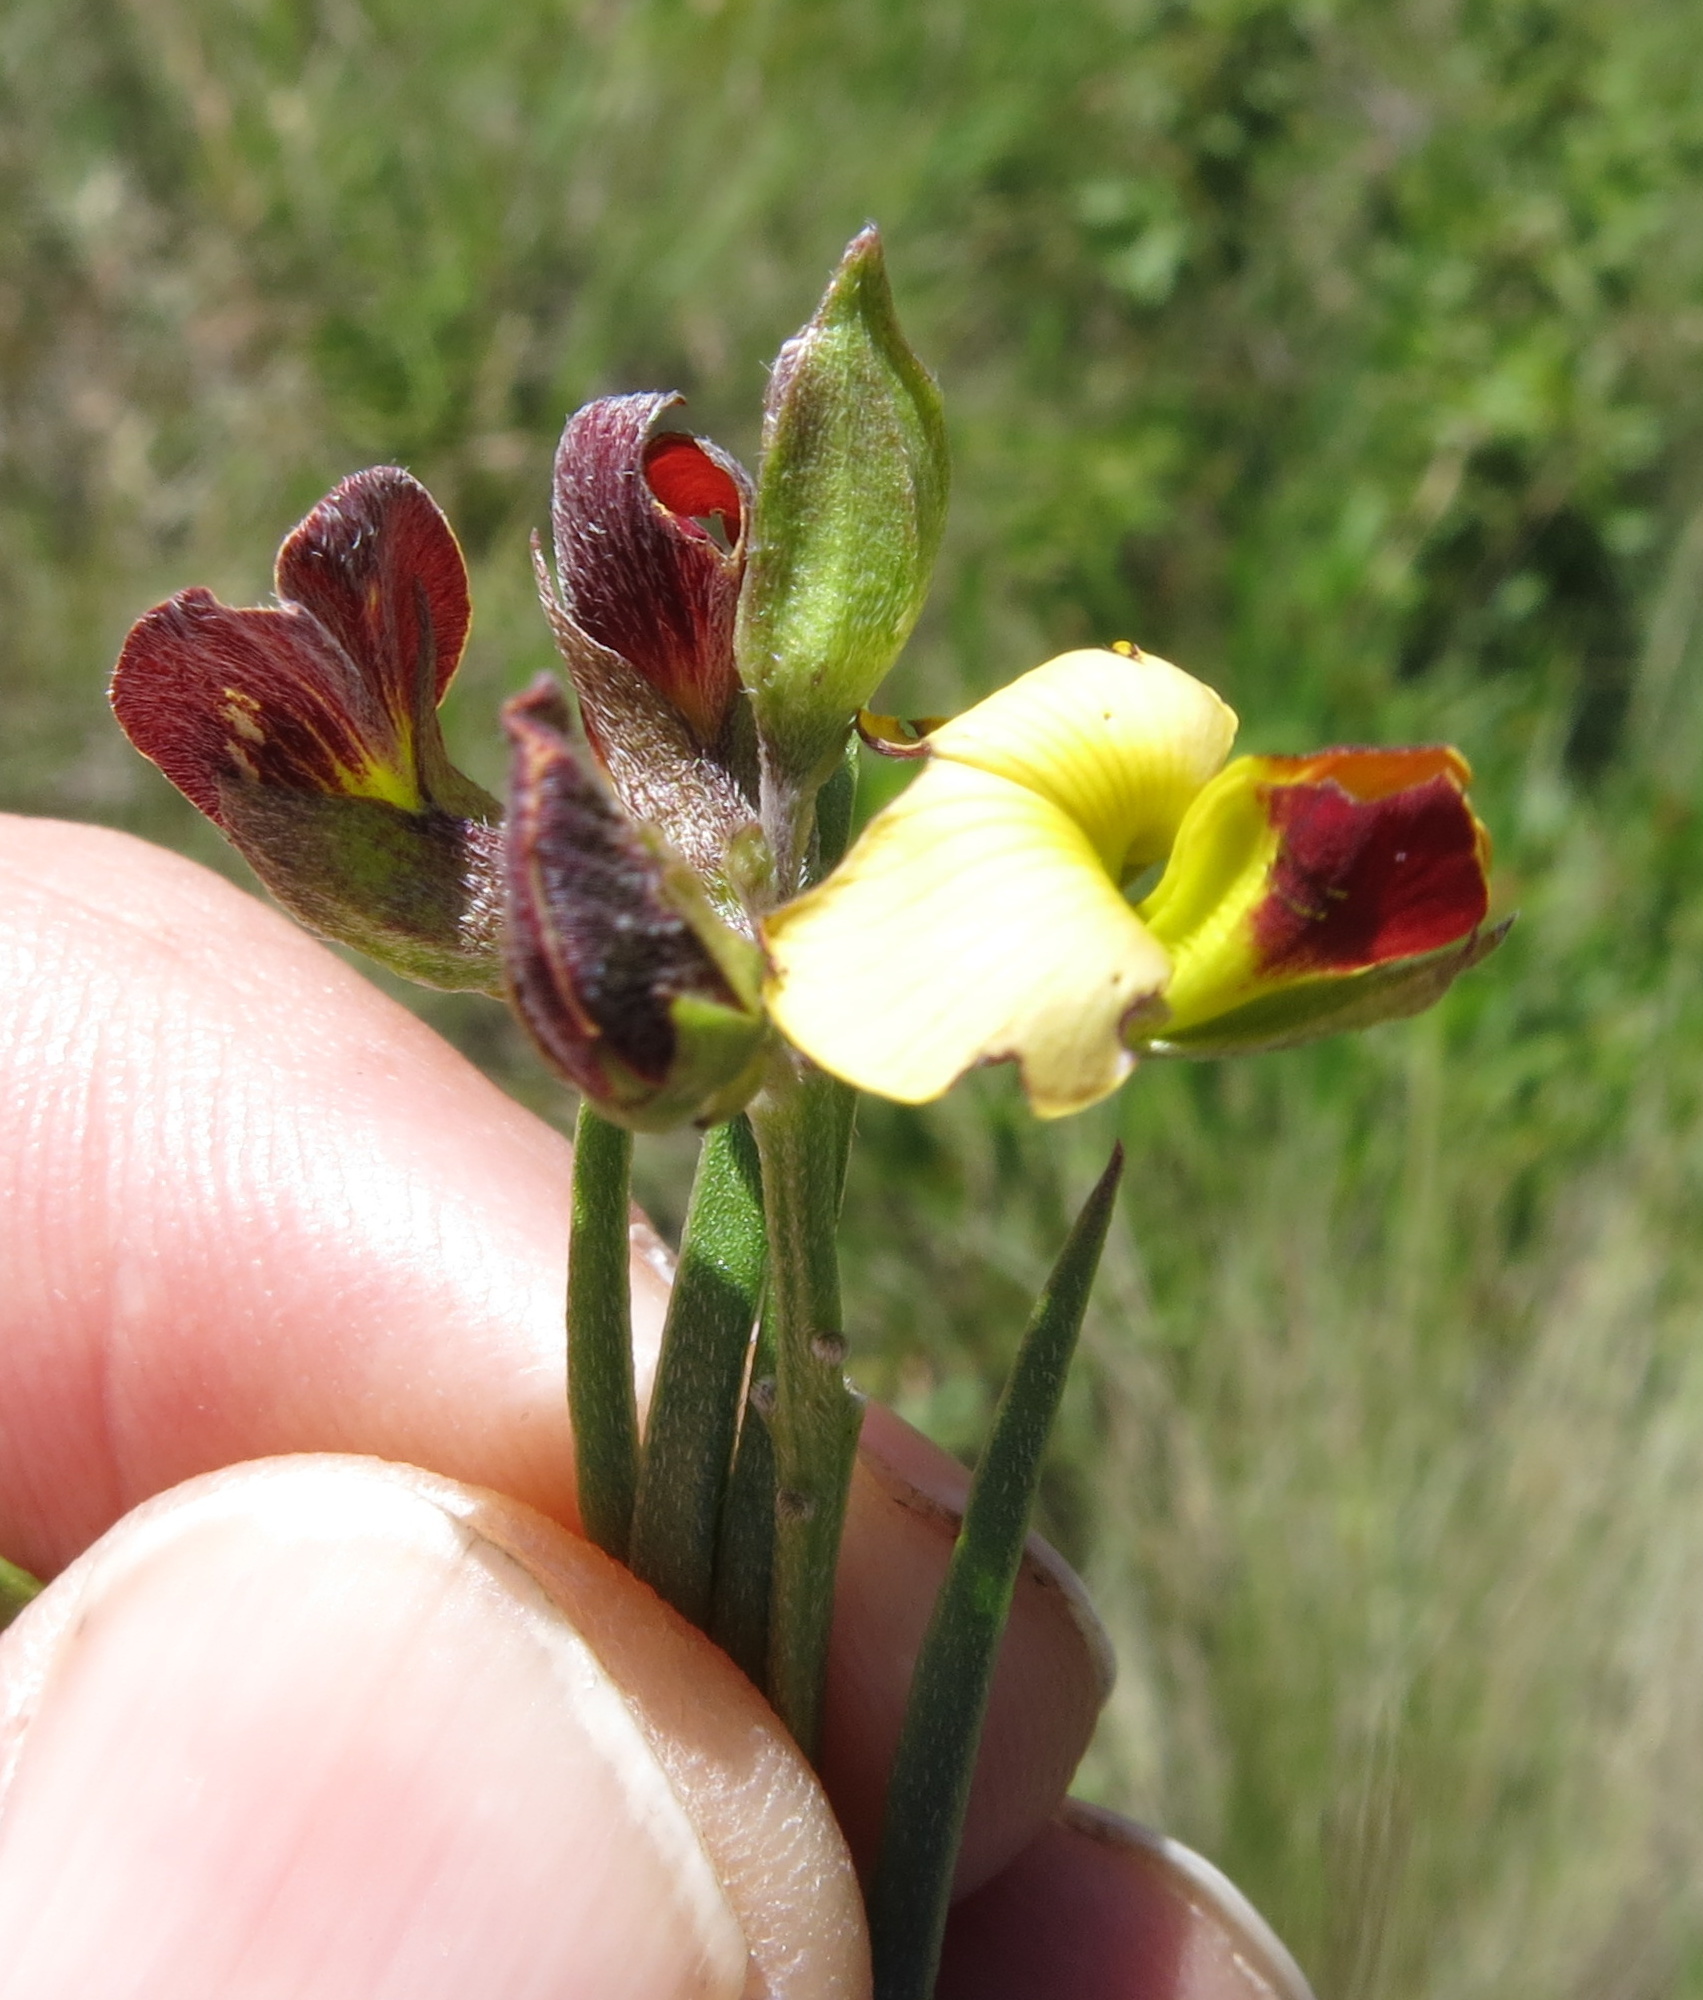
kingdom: Plantae
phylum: Tracheophyta
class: Magnoliopsida
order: Fabales
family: Fabaceae
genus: Argyrolobium
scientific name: Argyrolobium tuberosum
